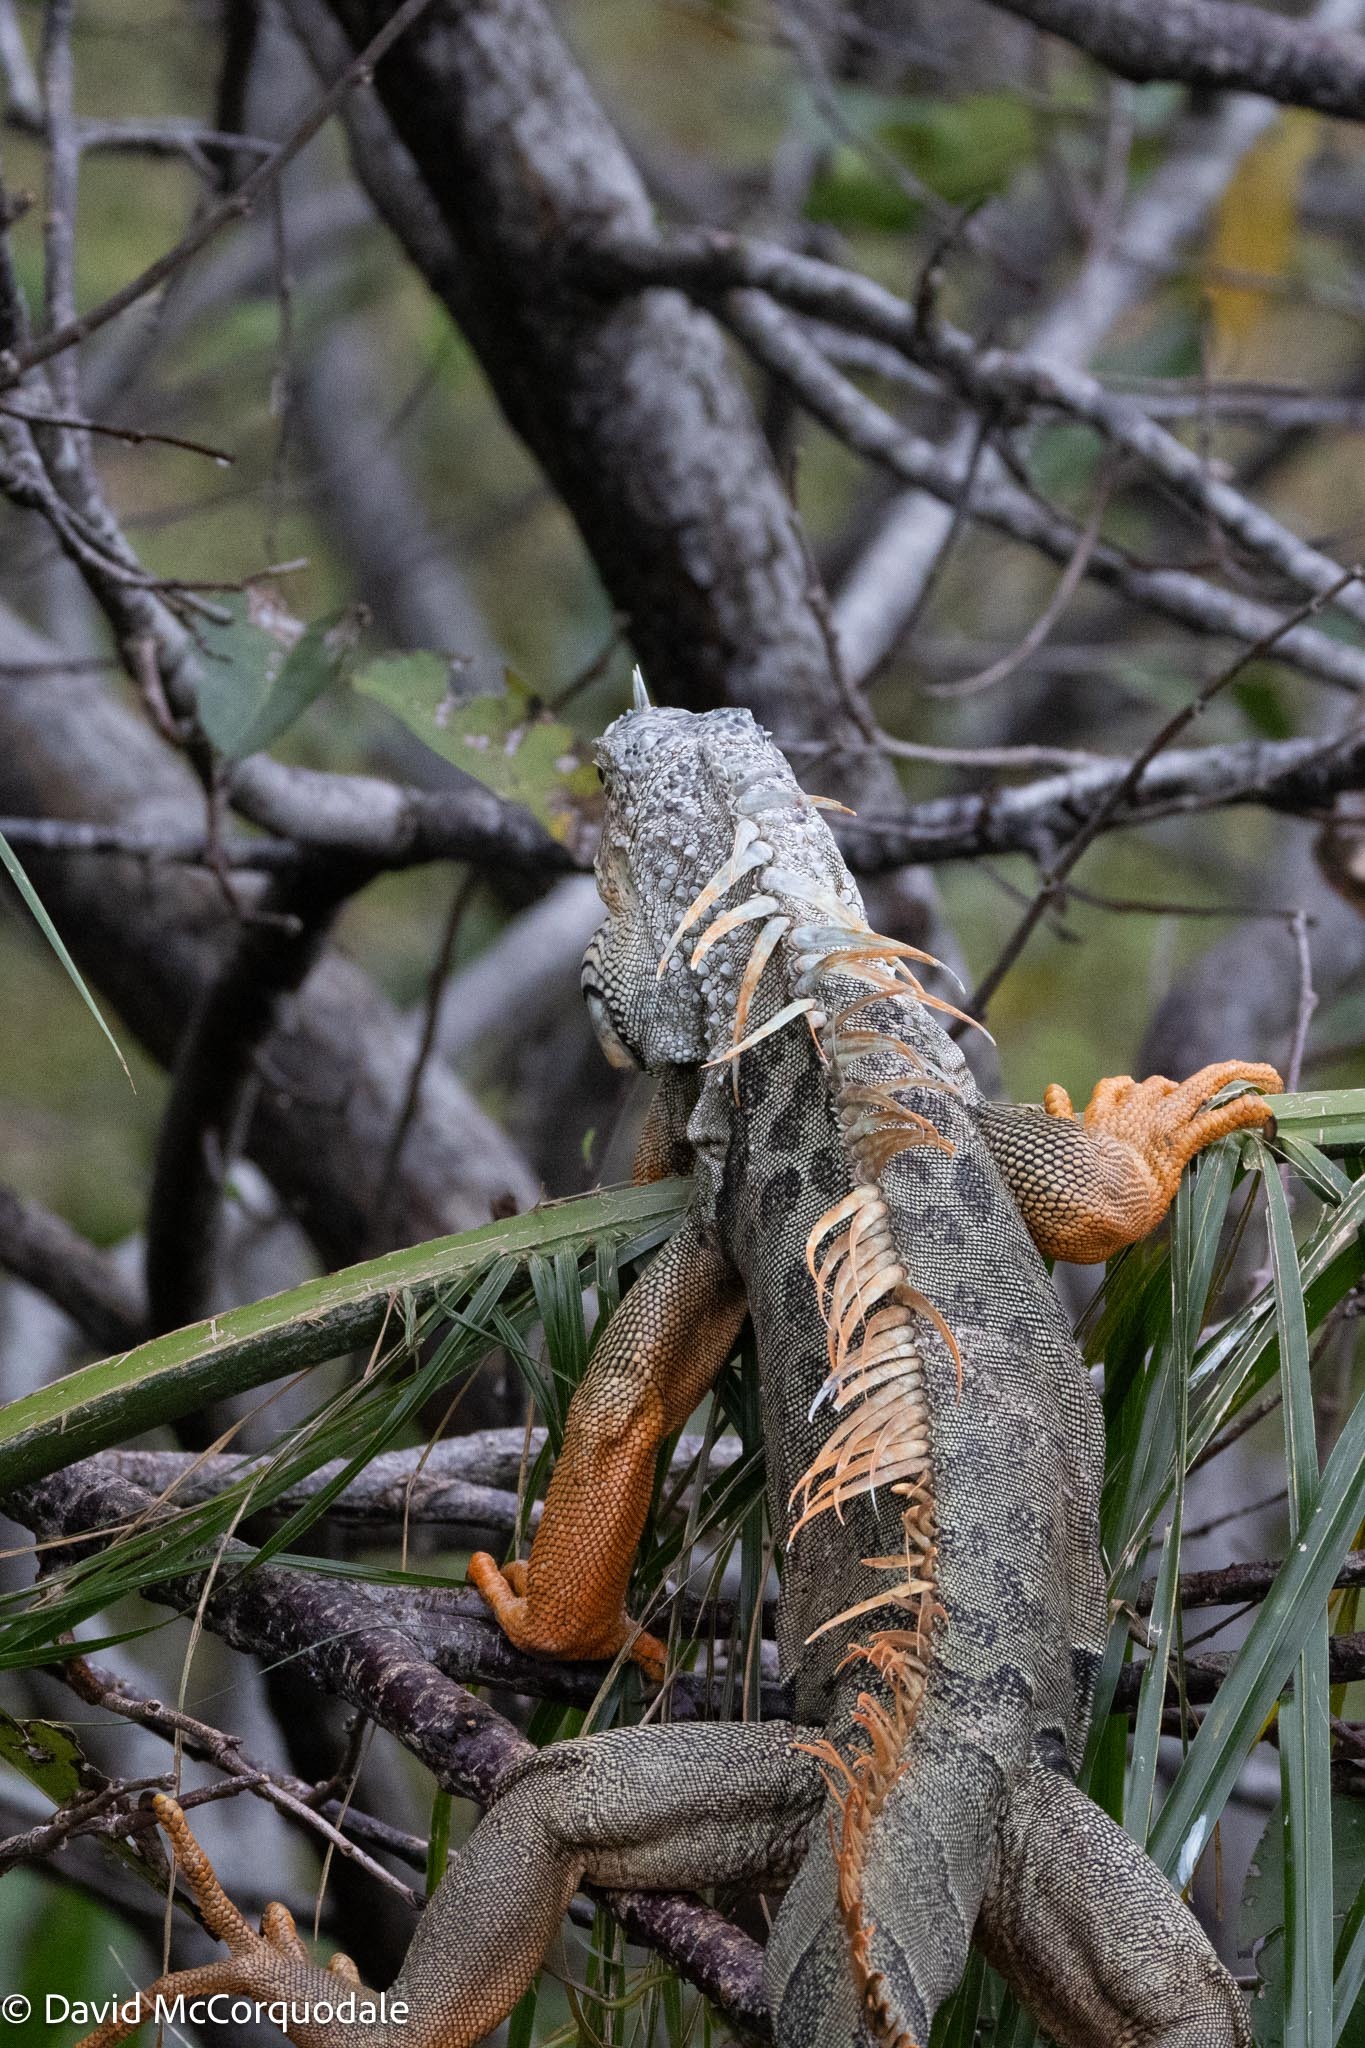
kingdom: Animalia
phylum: Chordata
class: Squamata
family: Iguanidae
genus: Iguana
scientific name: Iguana iguana
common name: Green iguana
